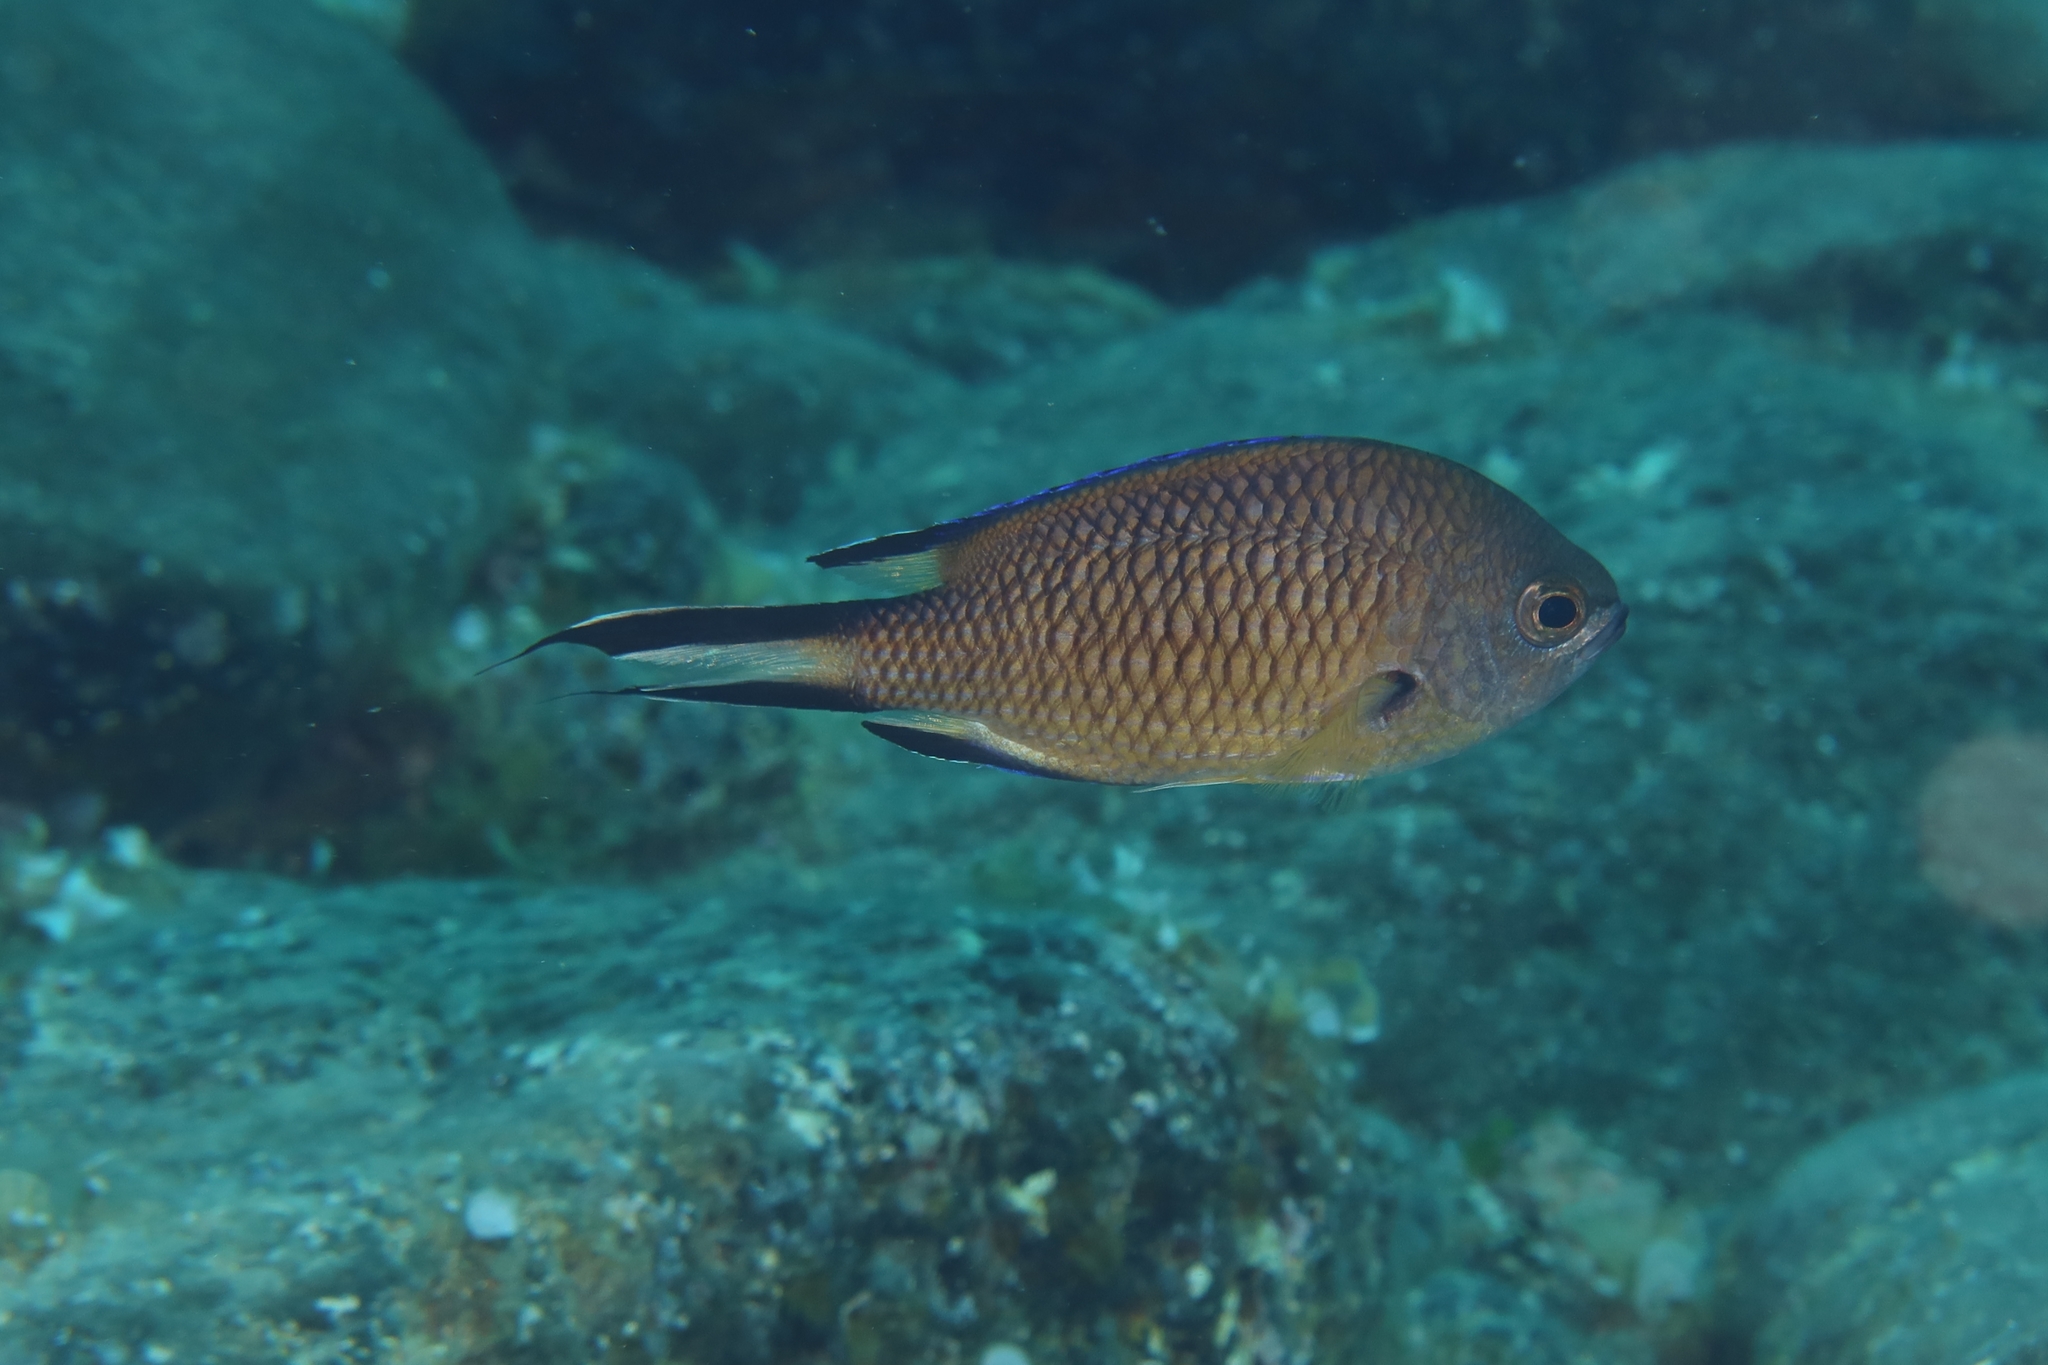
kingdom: Animalia
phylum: Chordata
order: Perciformes
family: Pomacentridae
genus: Chromis
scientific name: Chromis limbata
